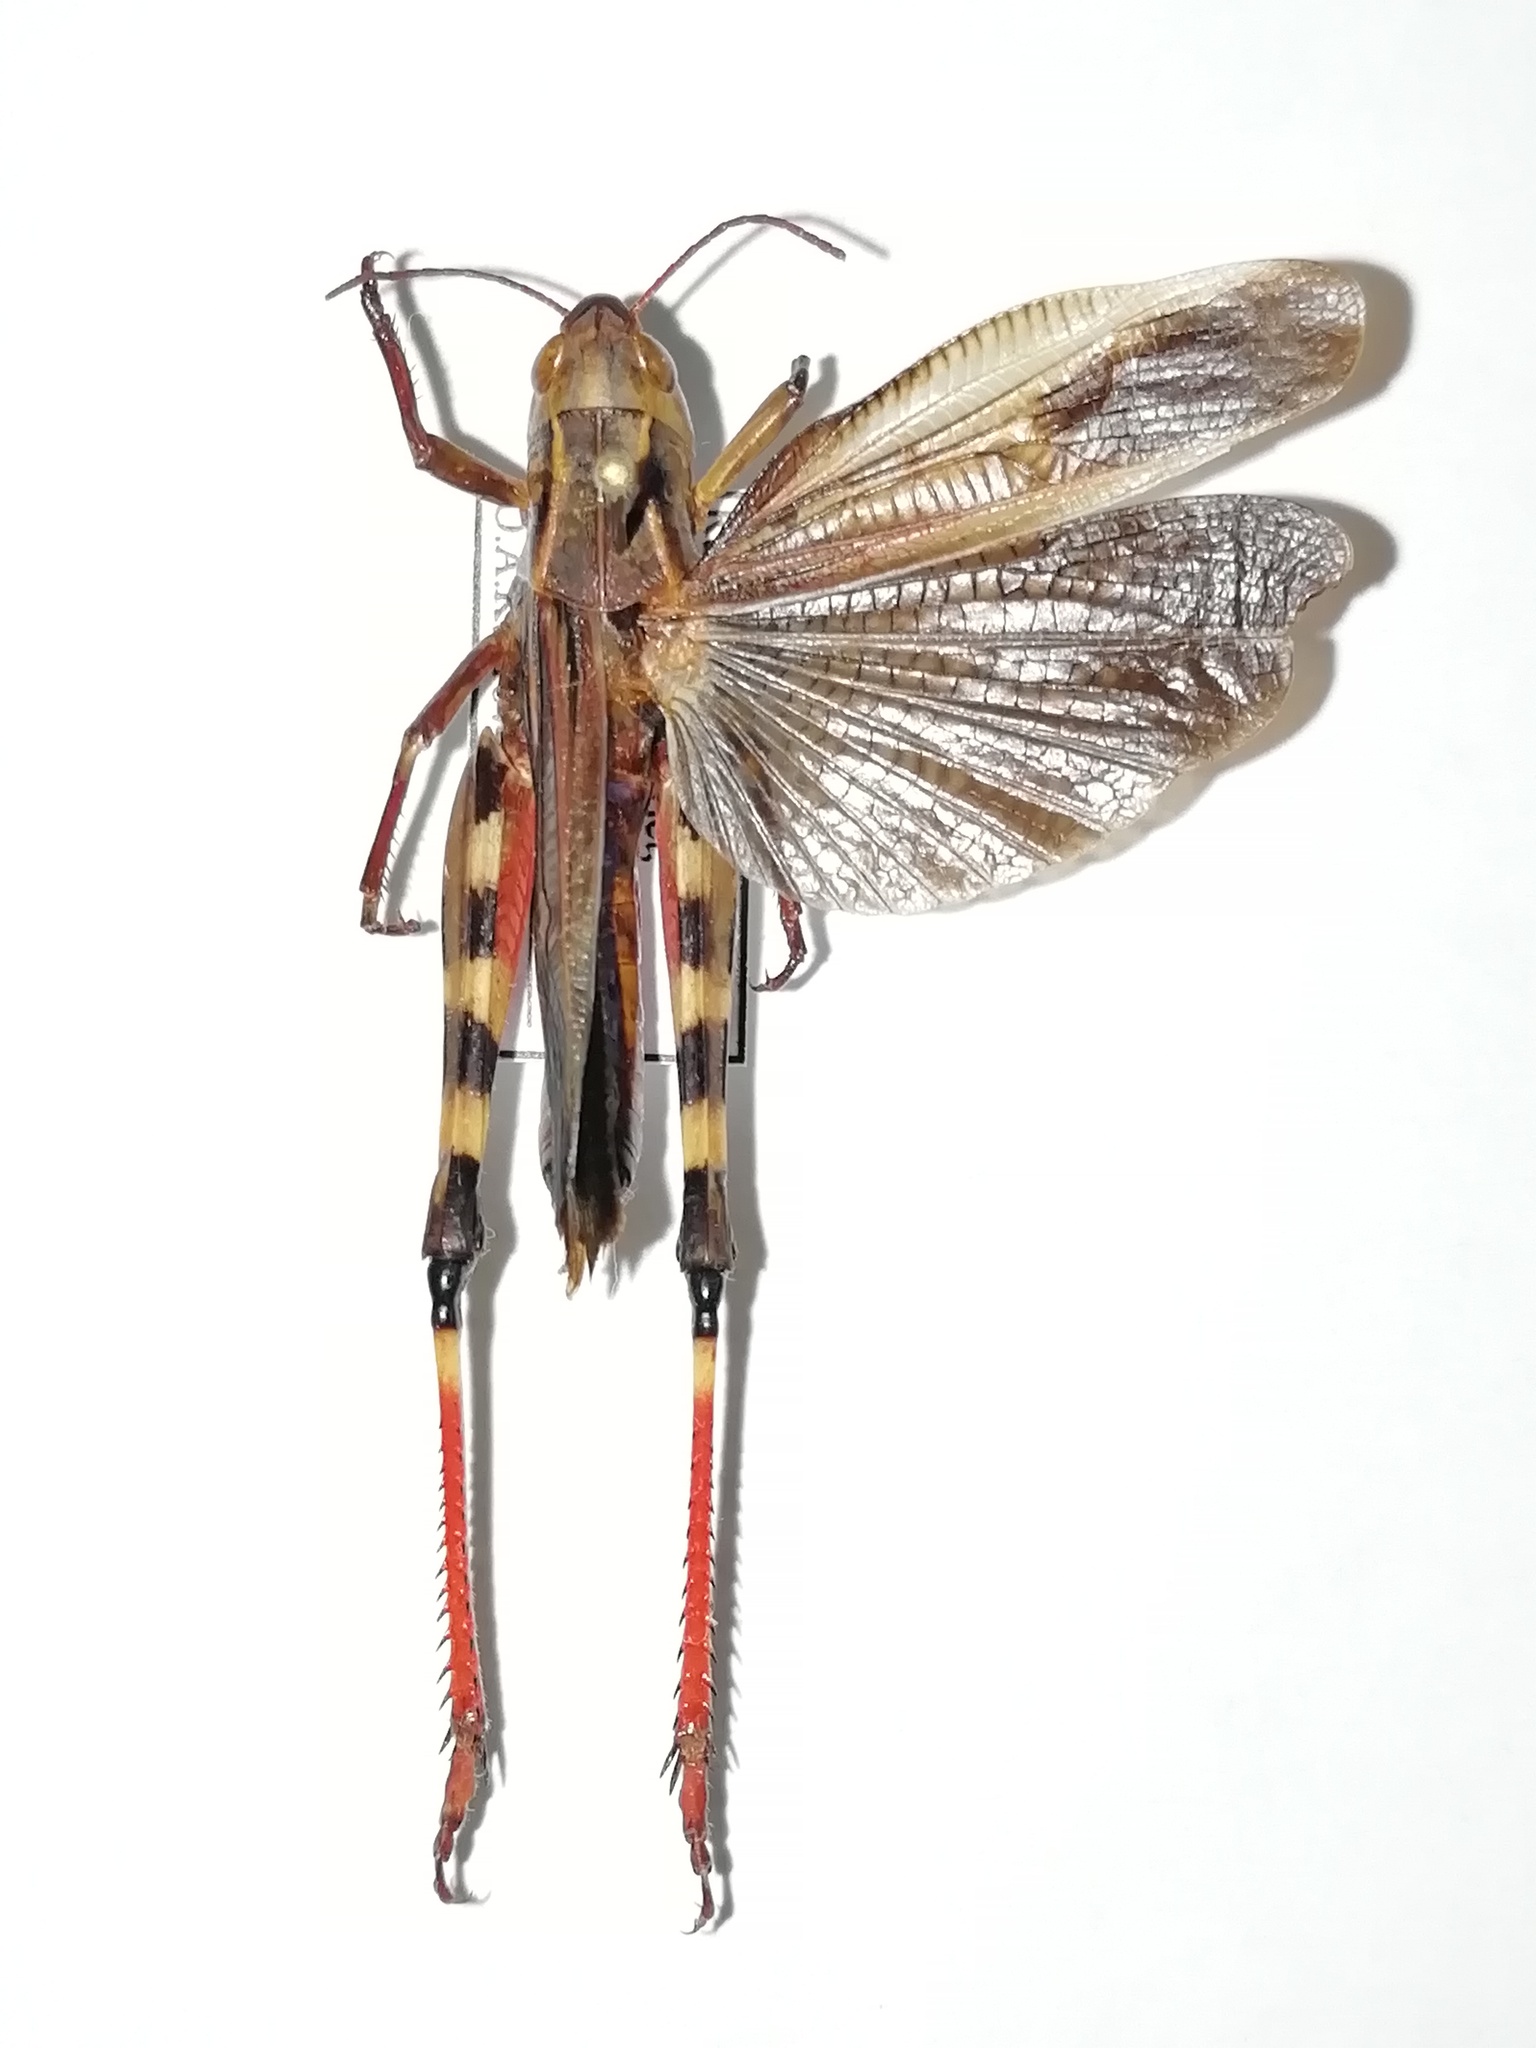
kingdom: Animalia
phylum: Arthropoda
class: Insecta
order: Orthoptera
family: Acrididae
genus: Arcyptera
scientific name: Arcyptera fusca
